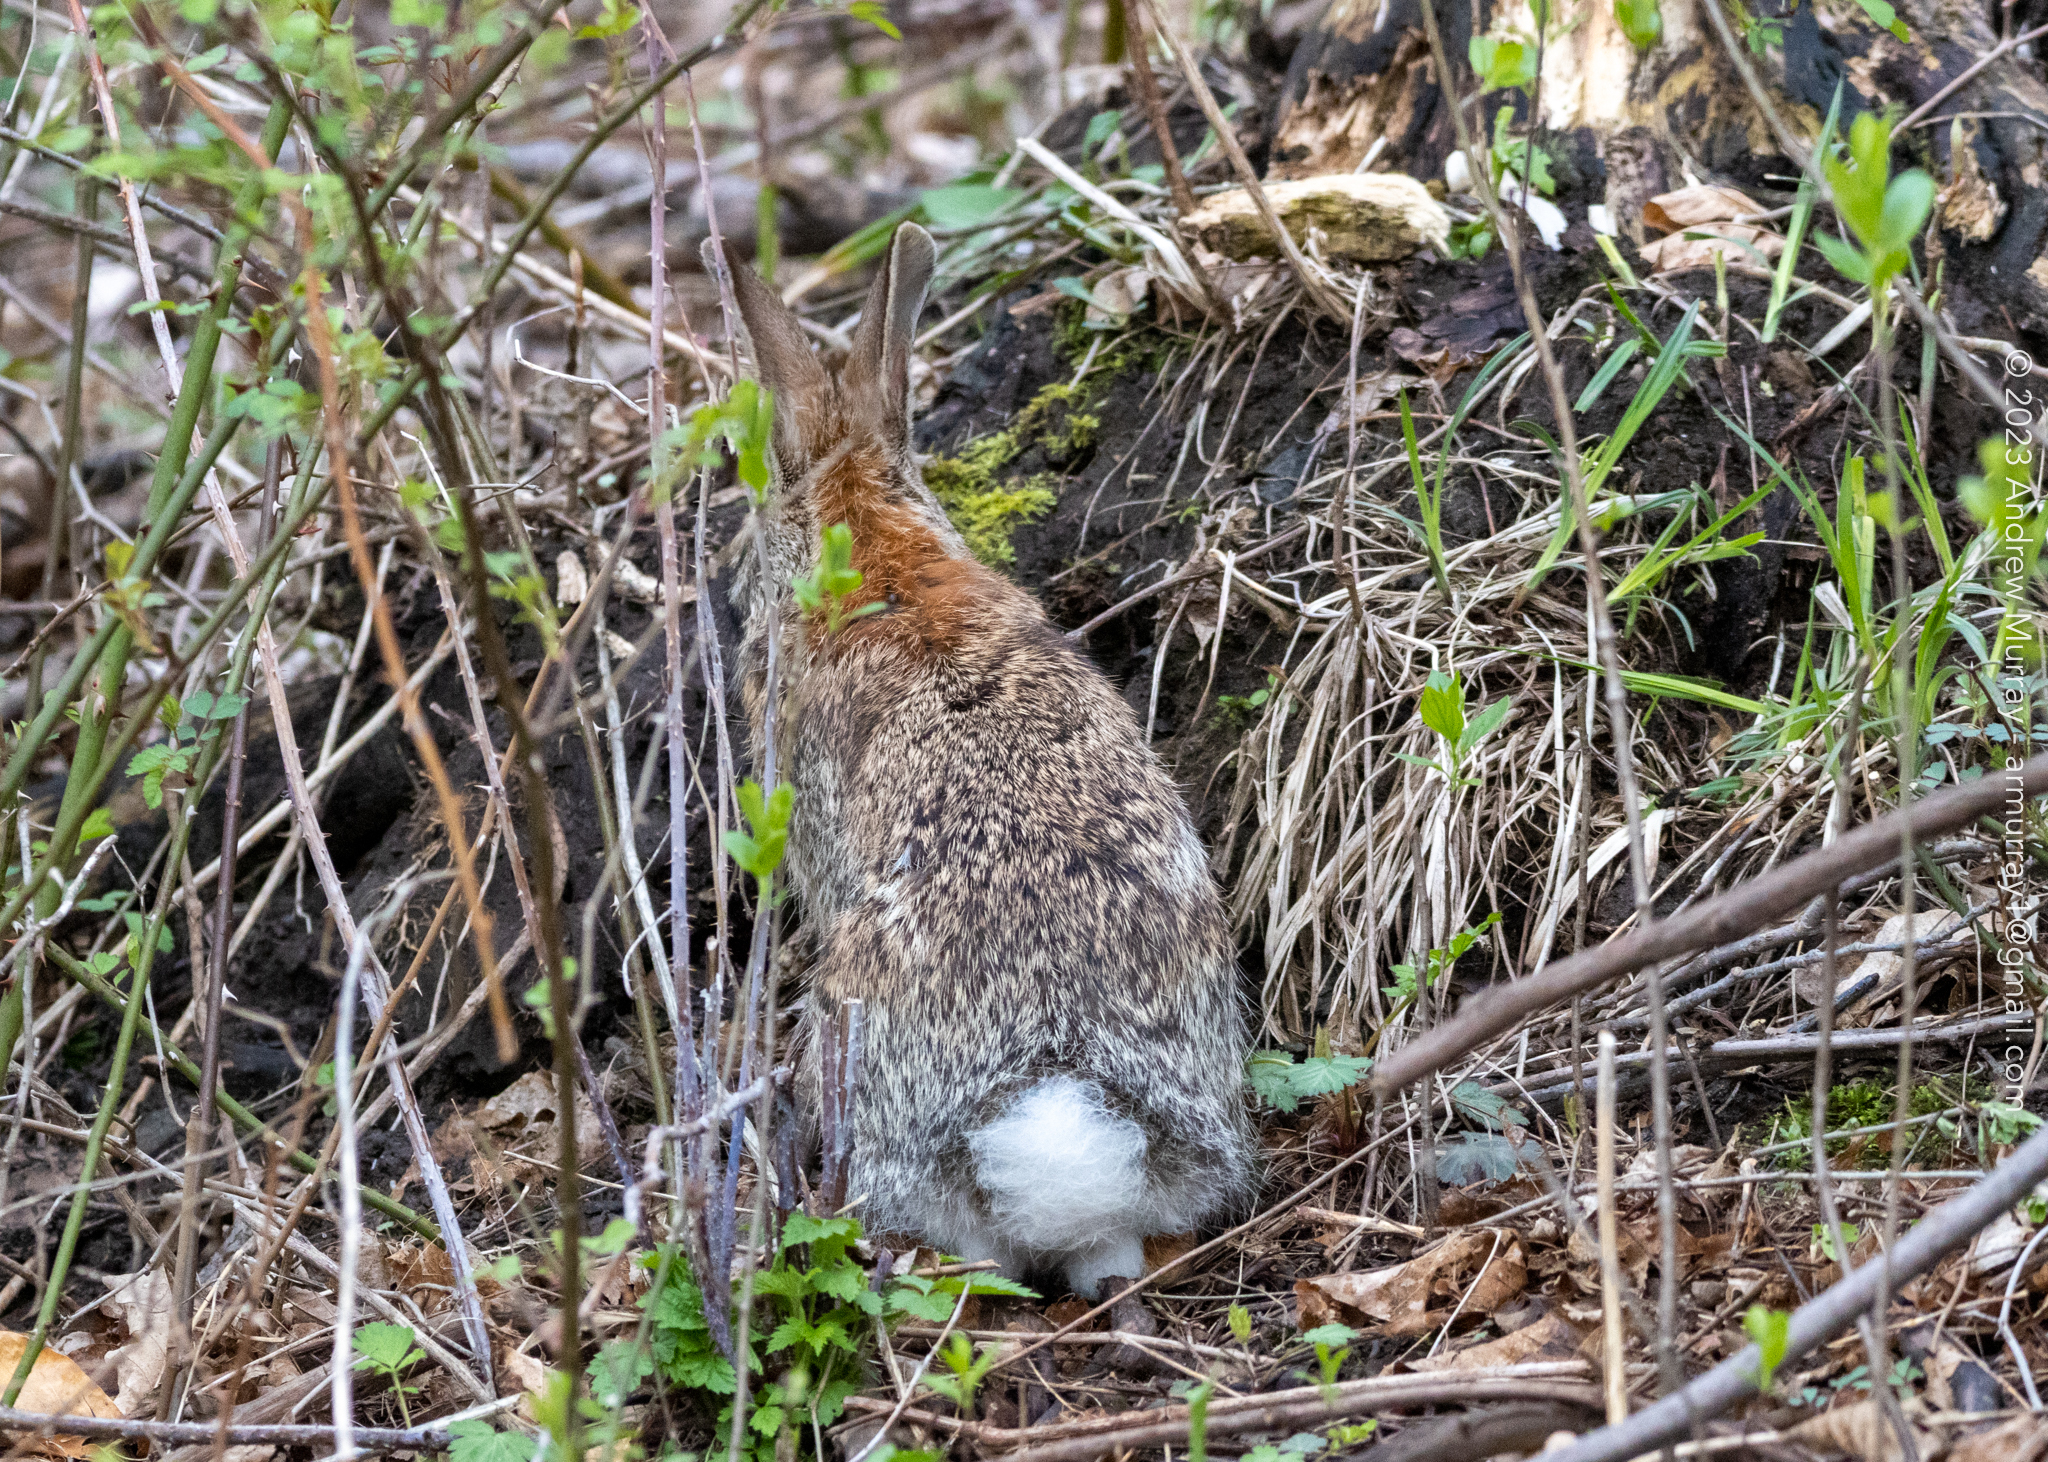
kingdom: Animalia
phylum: Chordata
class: Mammalia
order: Lagomorpha
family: Leporidae
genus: Sylvilagus
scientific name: Sylvilagus floridanus
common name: Eastern cottontail
